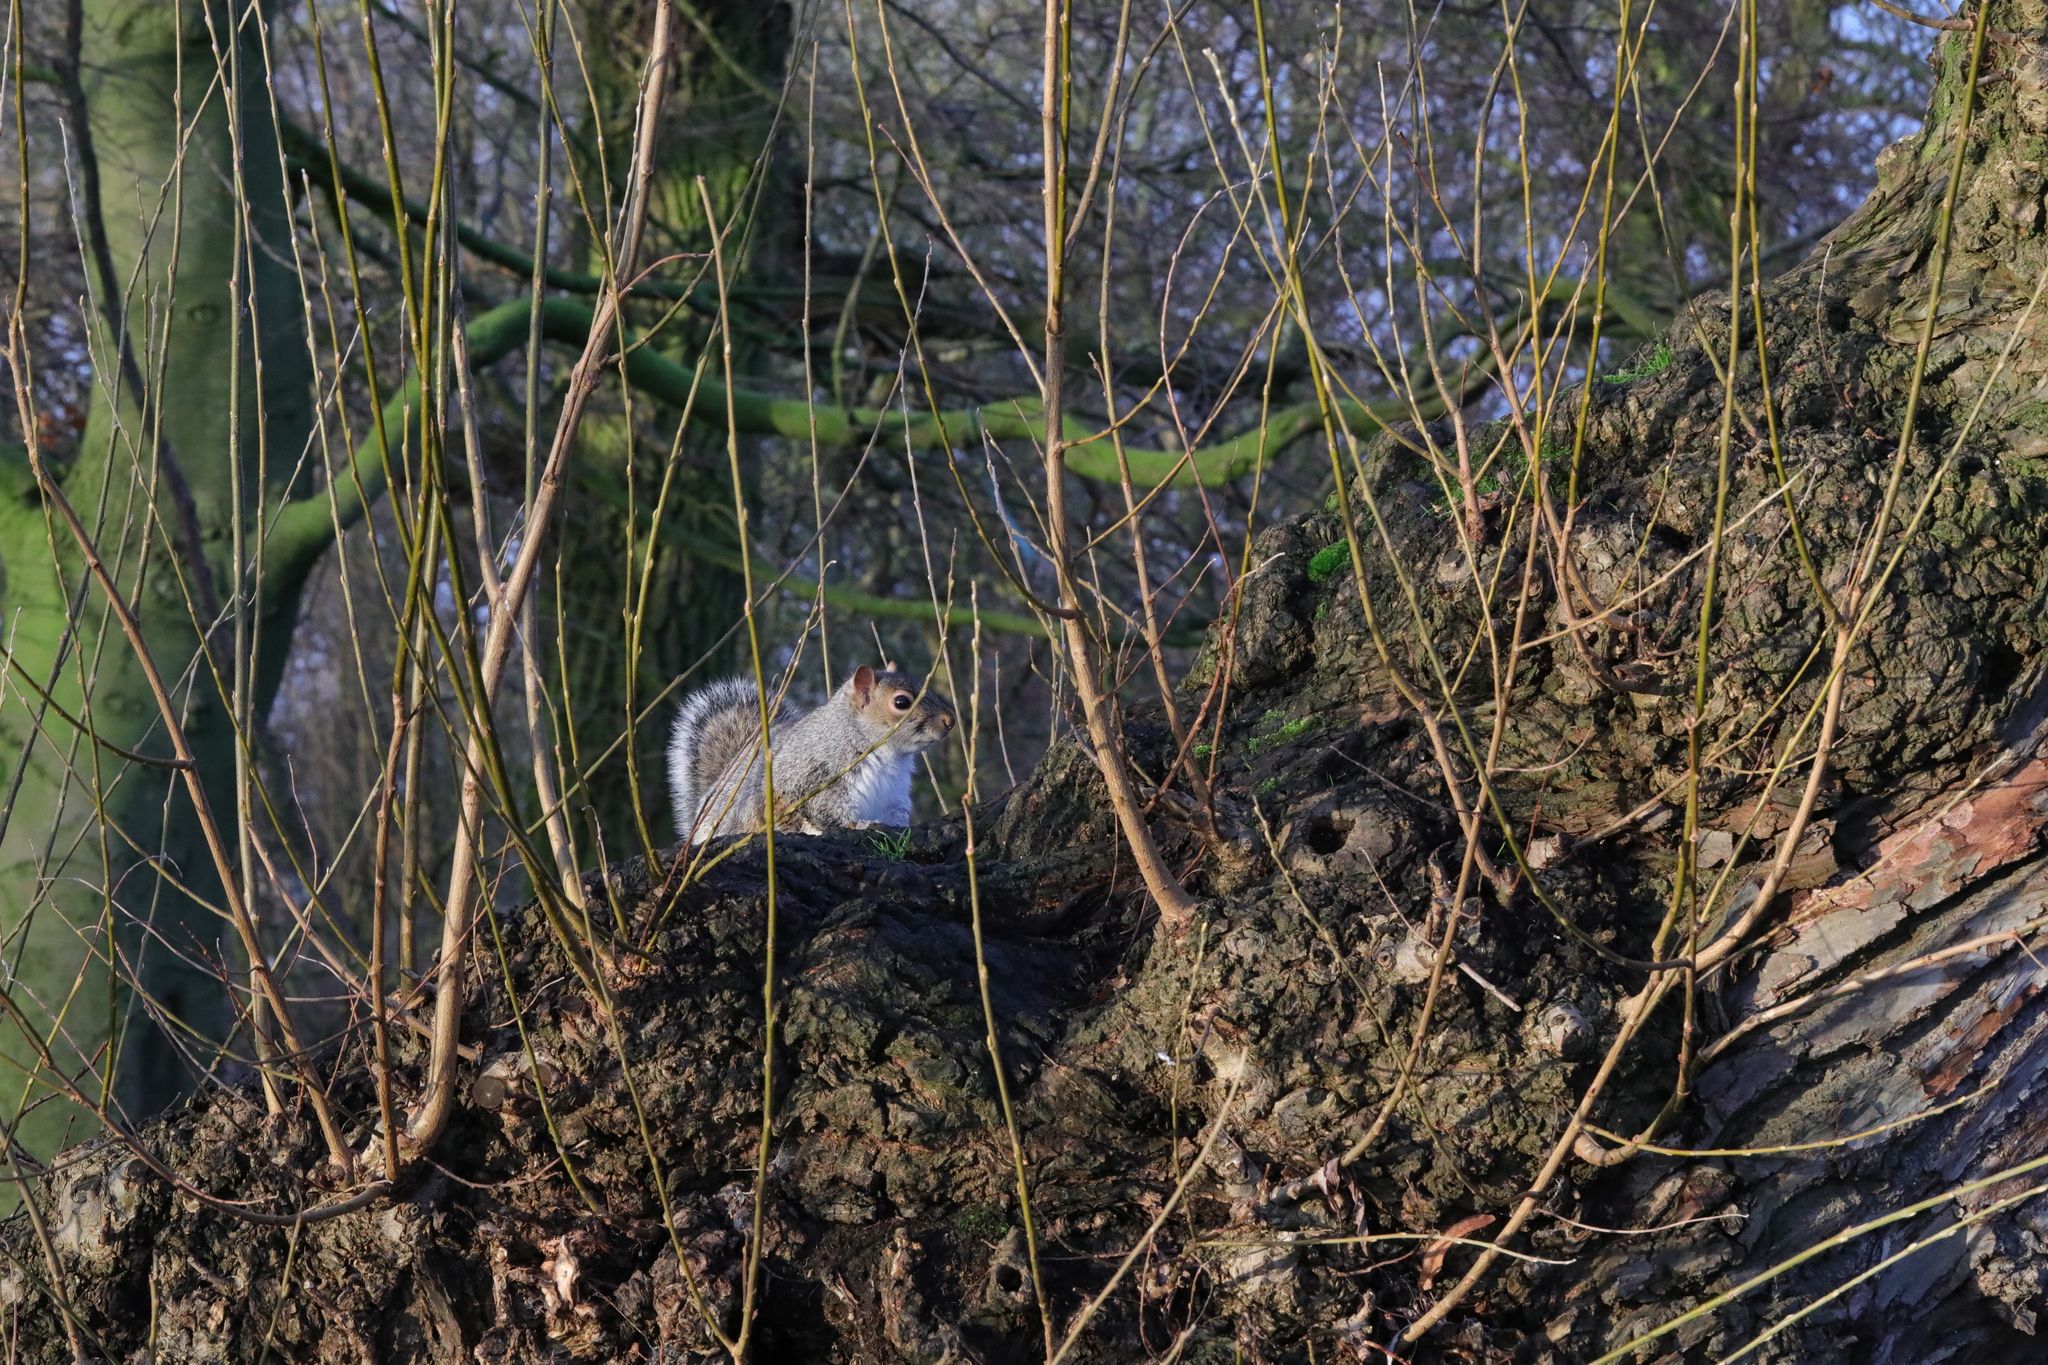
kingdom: Animalia
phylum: Chordata
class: Mammalia
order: Rodentia
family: Sciuridae
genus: Sciurus
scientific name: Sciurus carolinensis
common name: Eastern gray squirrel
